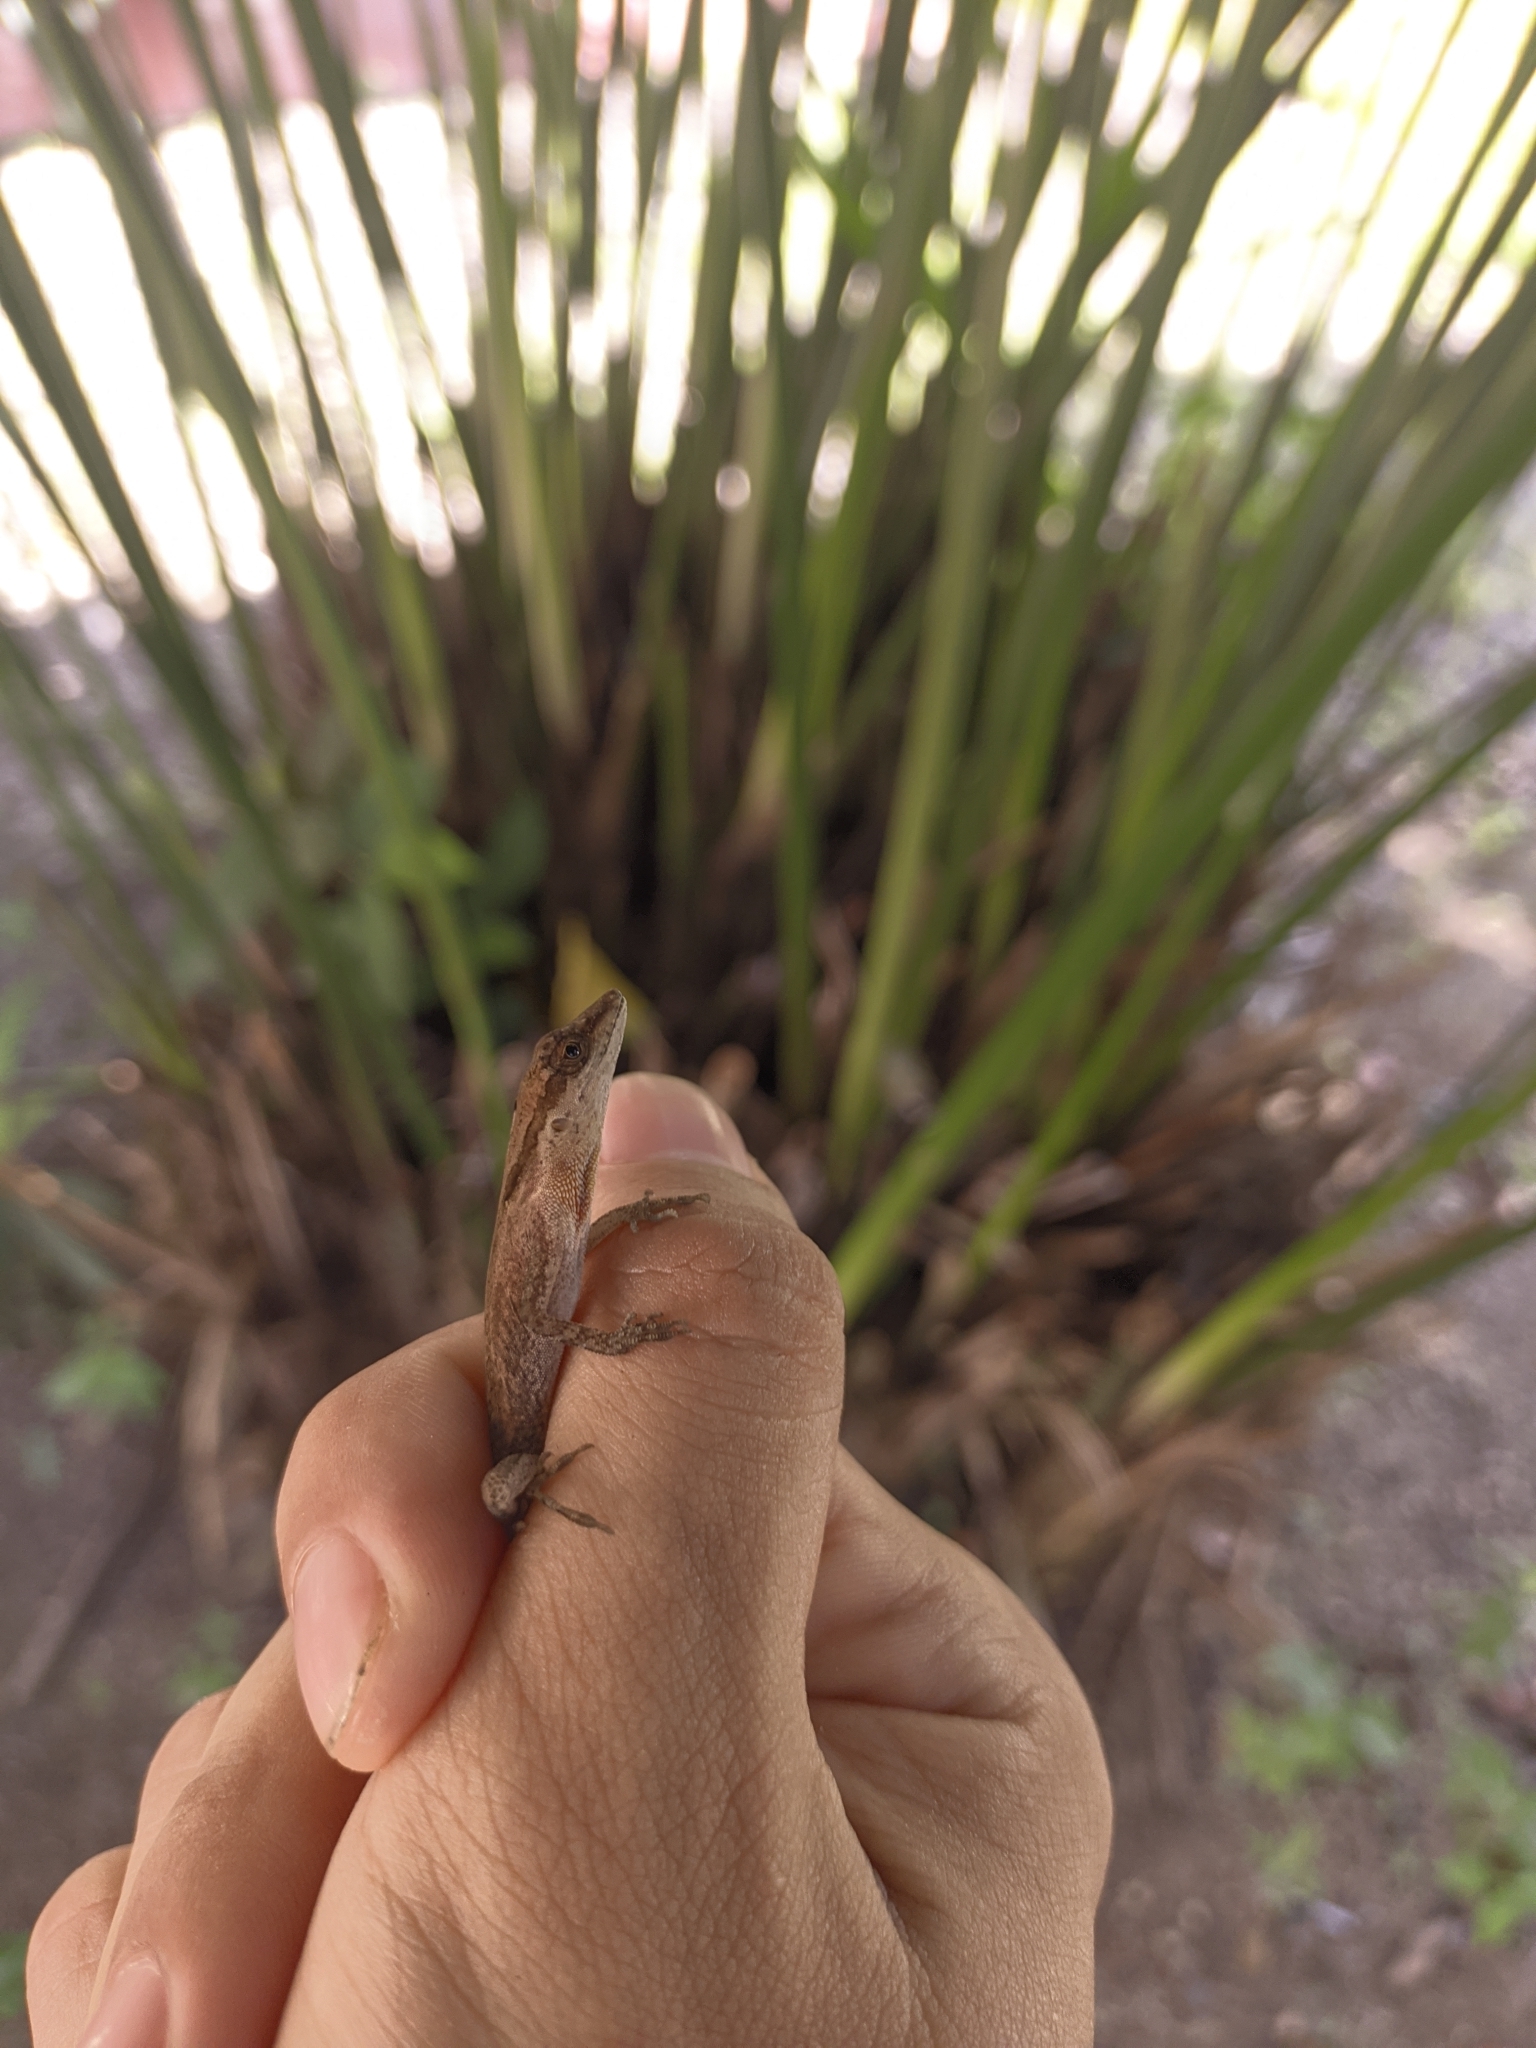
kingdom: Animalia
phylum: Chordata
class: Squamata
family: Dactyloidae
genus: Anolis
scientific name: Anolis gaigei
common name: Gaige’s anole
